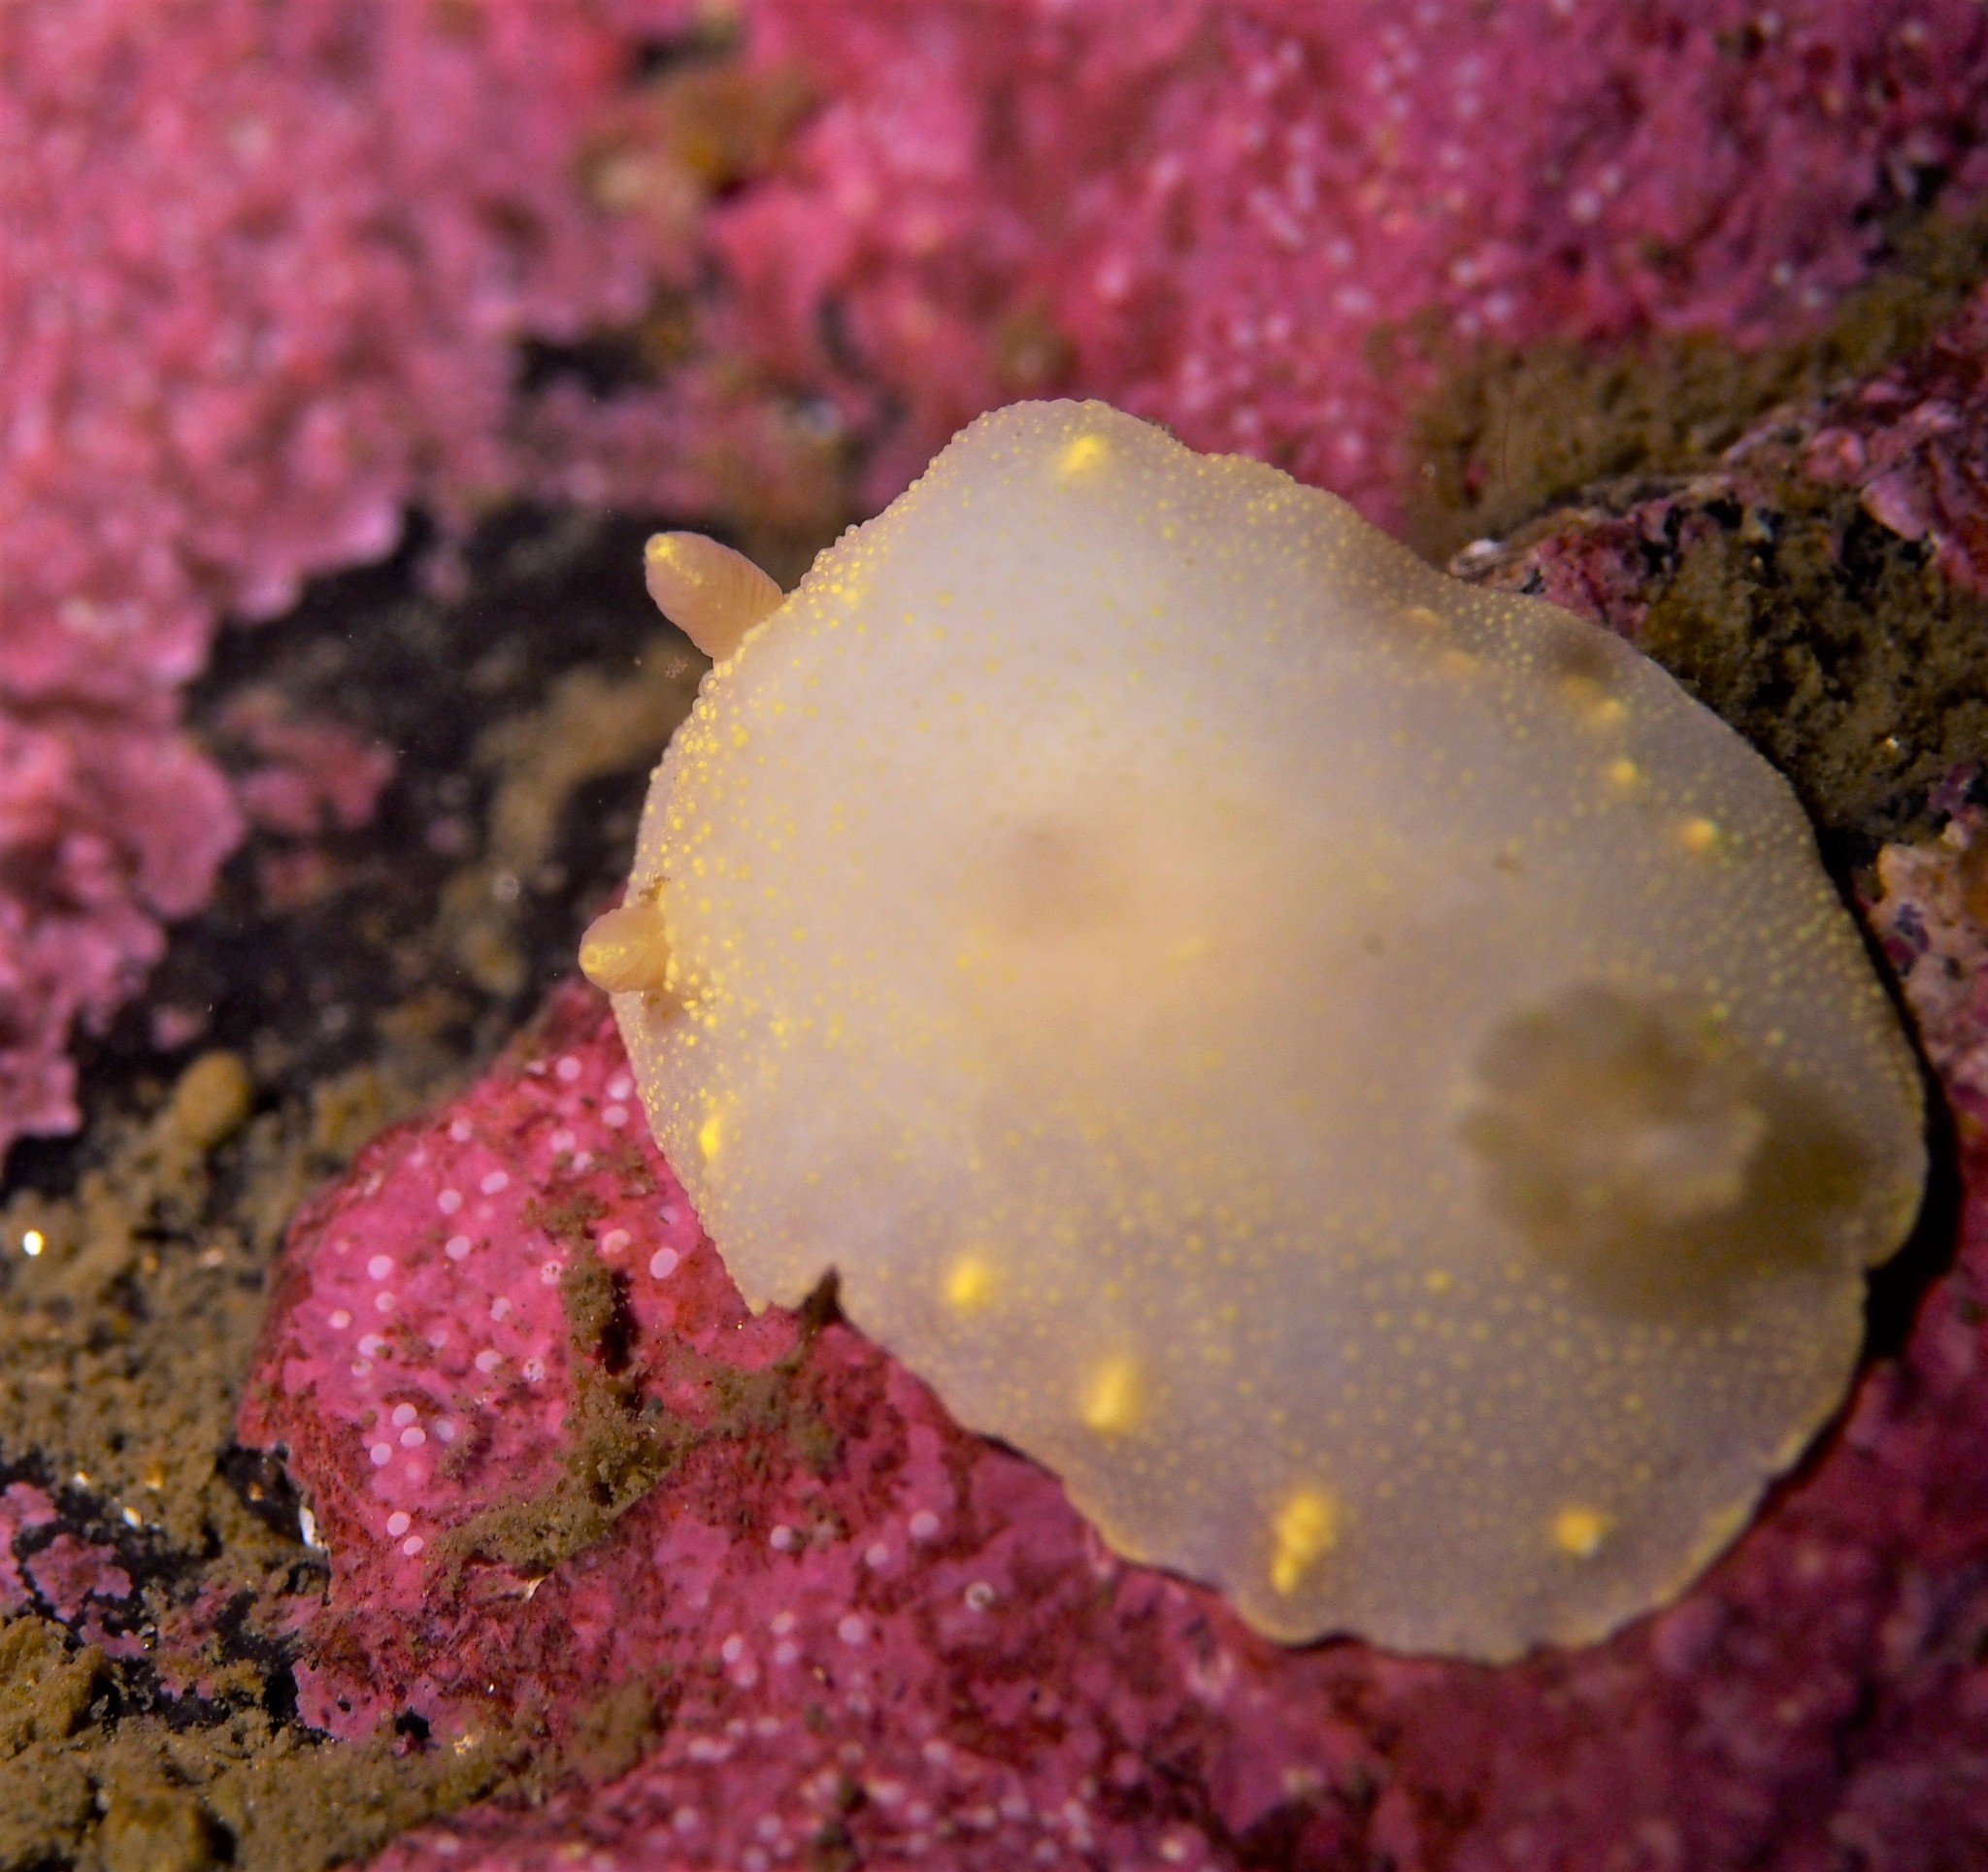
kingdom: Animalia
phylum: Mollusca
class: Gastropoda
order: Nudibranchia
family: Cadlinidae
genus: Cadlina
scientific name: Cadlina laevis
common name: White atlantic cadlina
